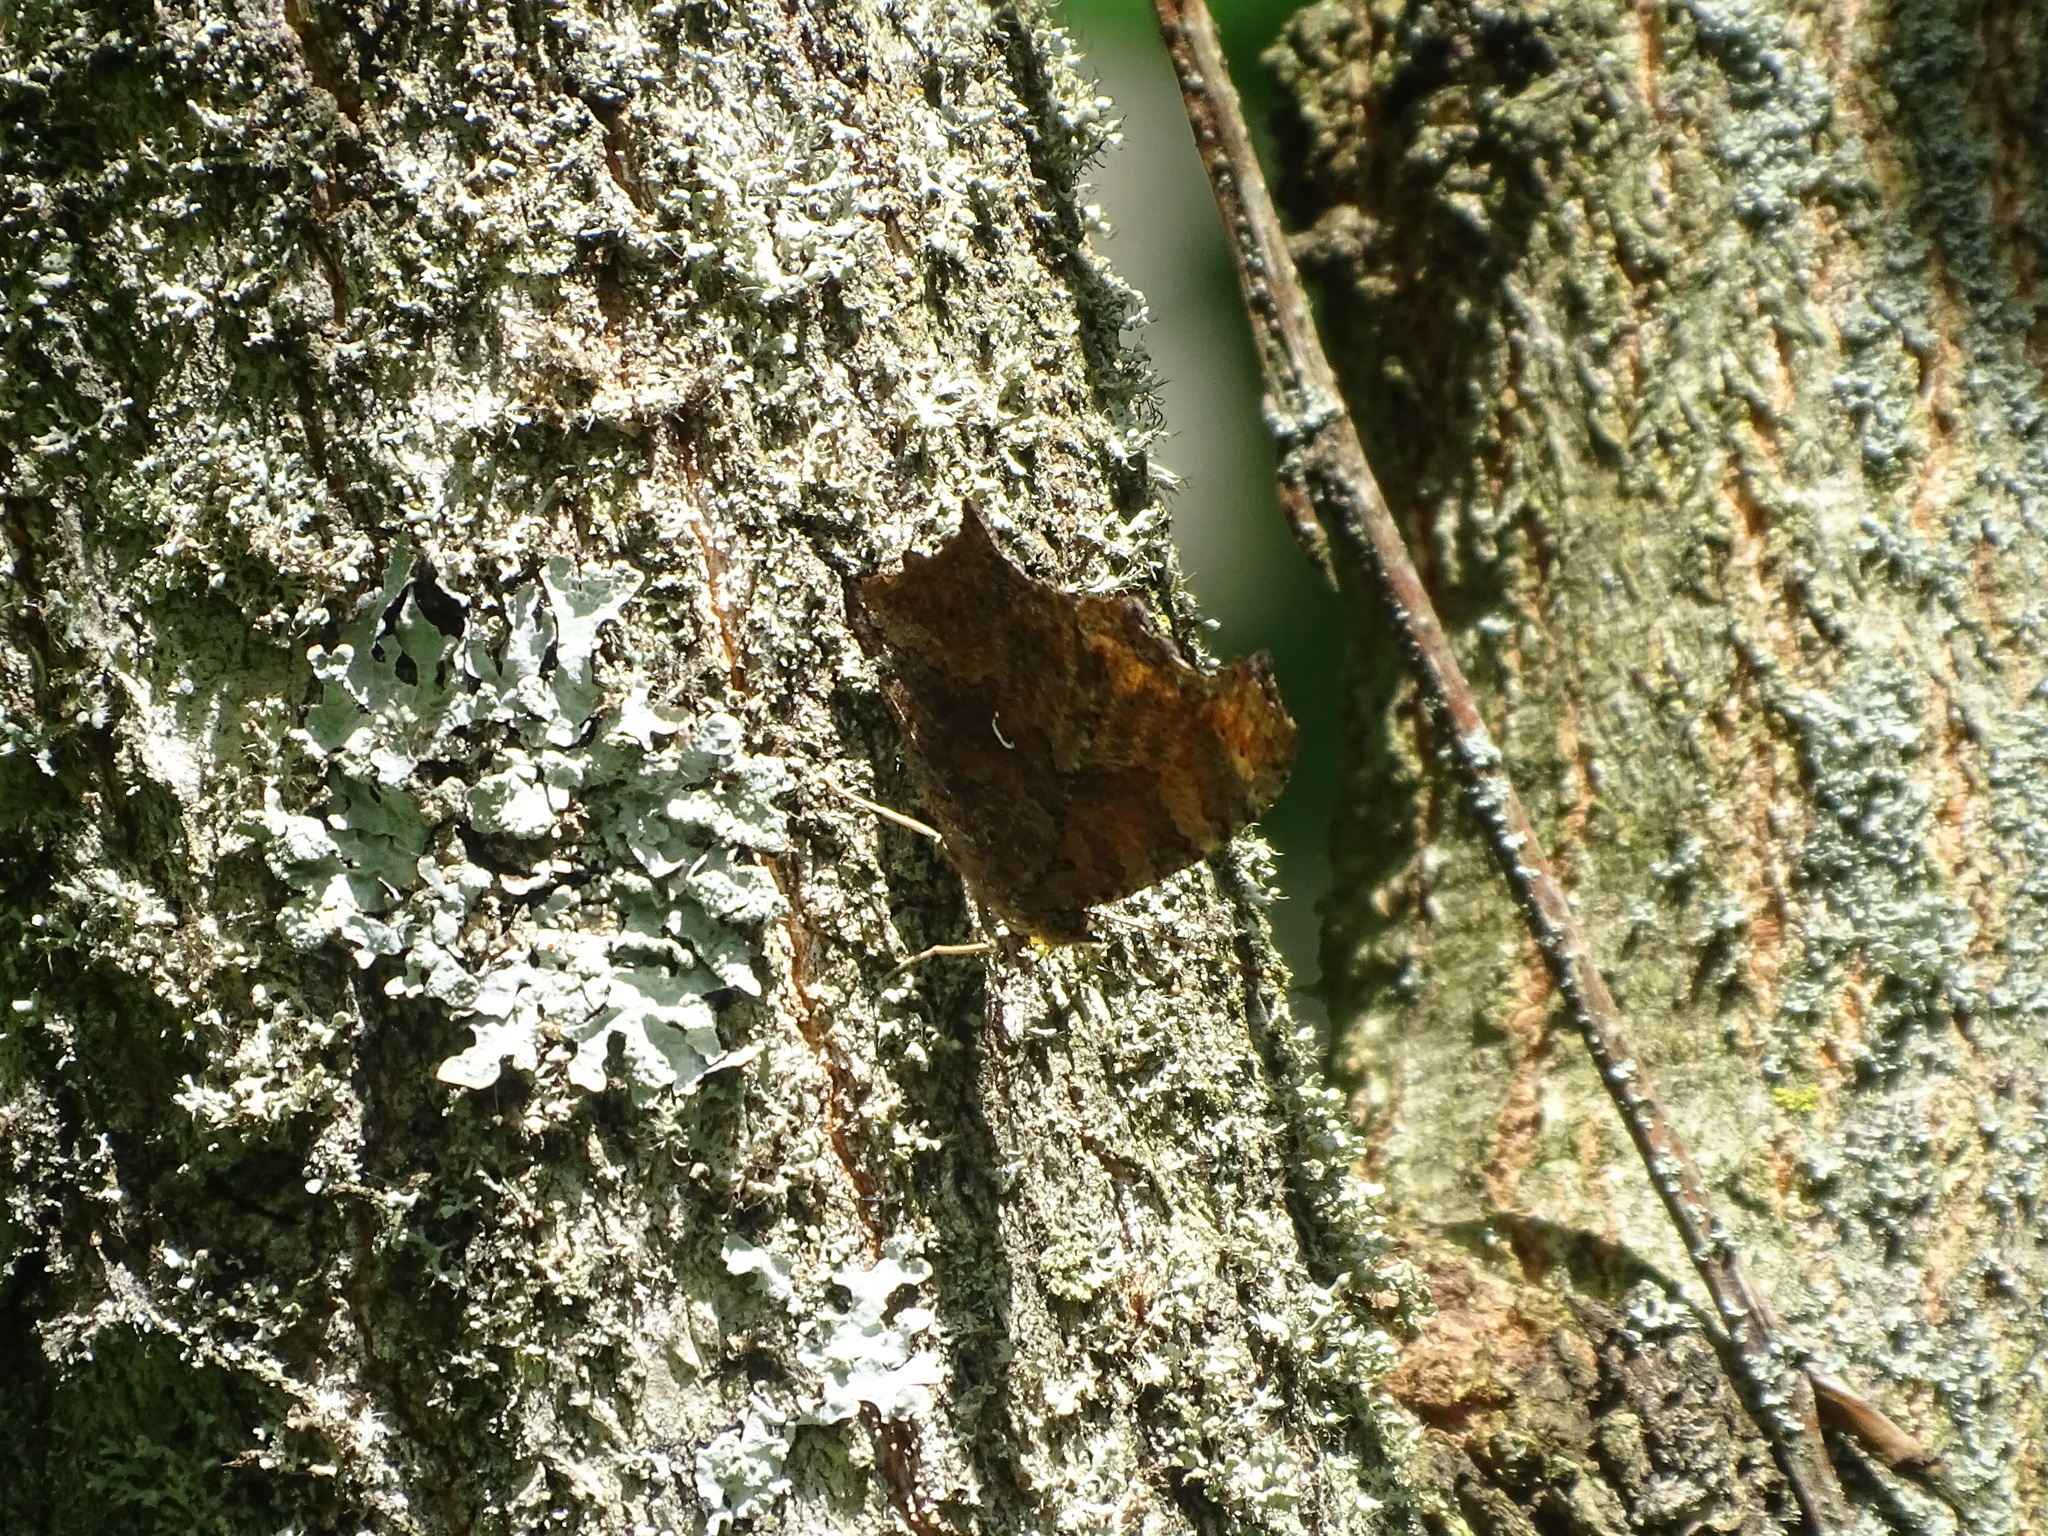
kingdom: Animalia
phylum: Arthropoda
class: Insecta
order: Lepidoptera
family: Nymphalidae
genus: Polygonia
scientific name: Polygonia comma
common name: Eastern comma
